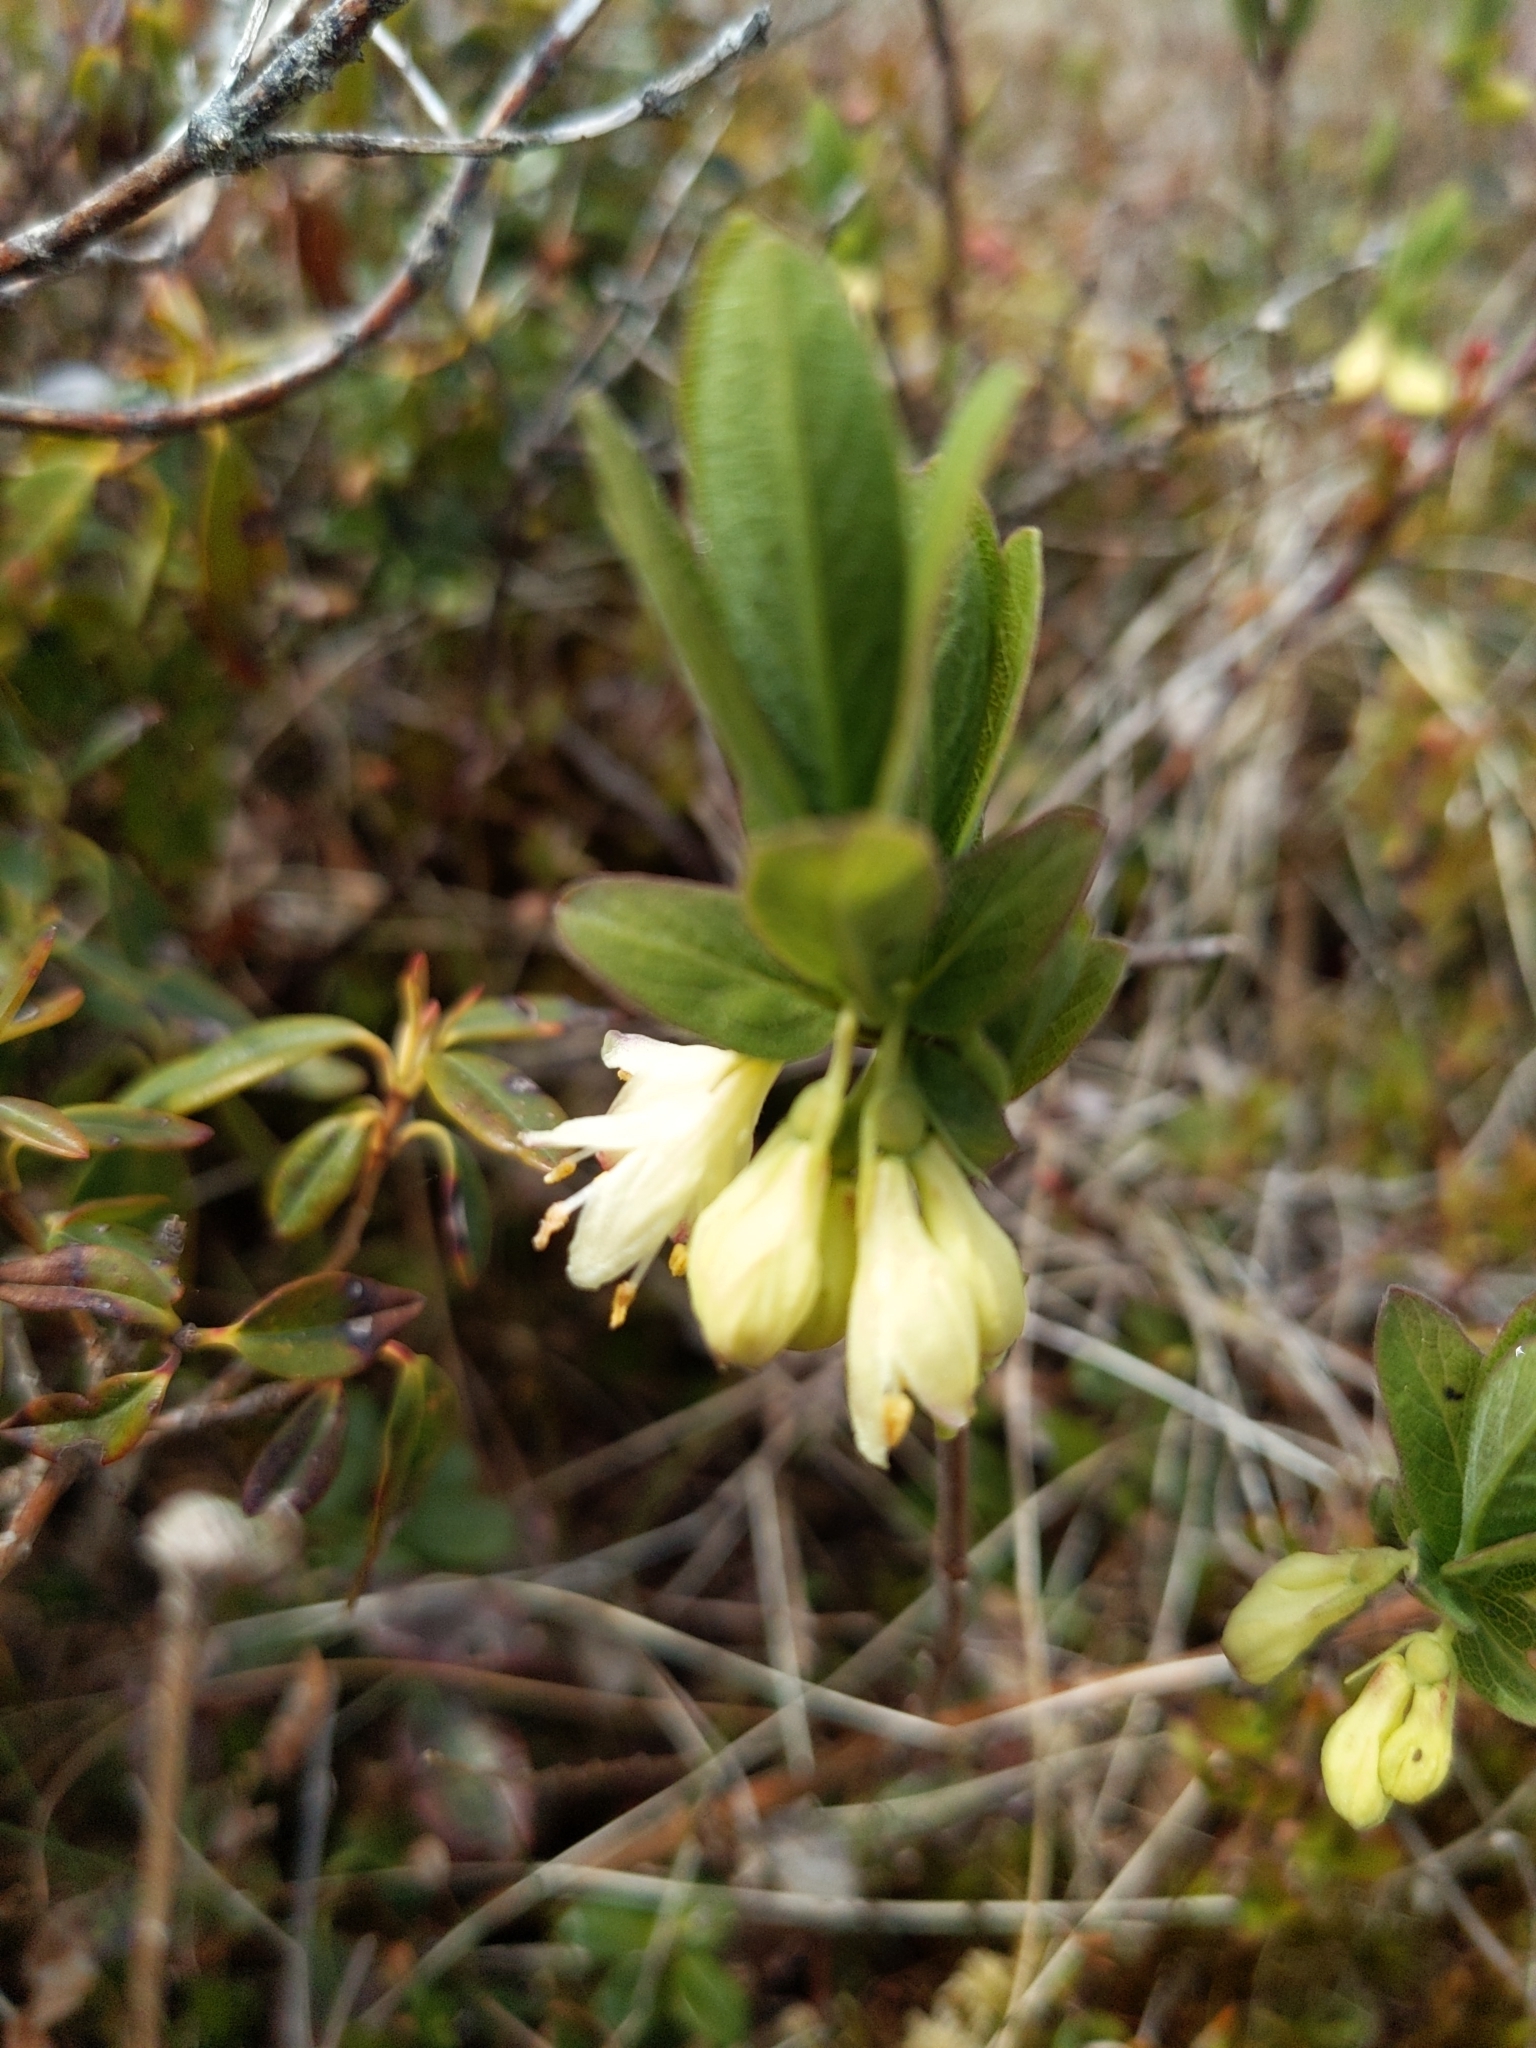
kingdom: Plantae
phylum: Tracheophyta
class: Magnoliopsida
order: Dipsacales
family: Caprifoliaceae
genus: Lonicera
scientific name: Lonicera villosa
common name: Mountain fly-honeysuckle
